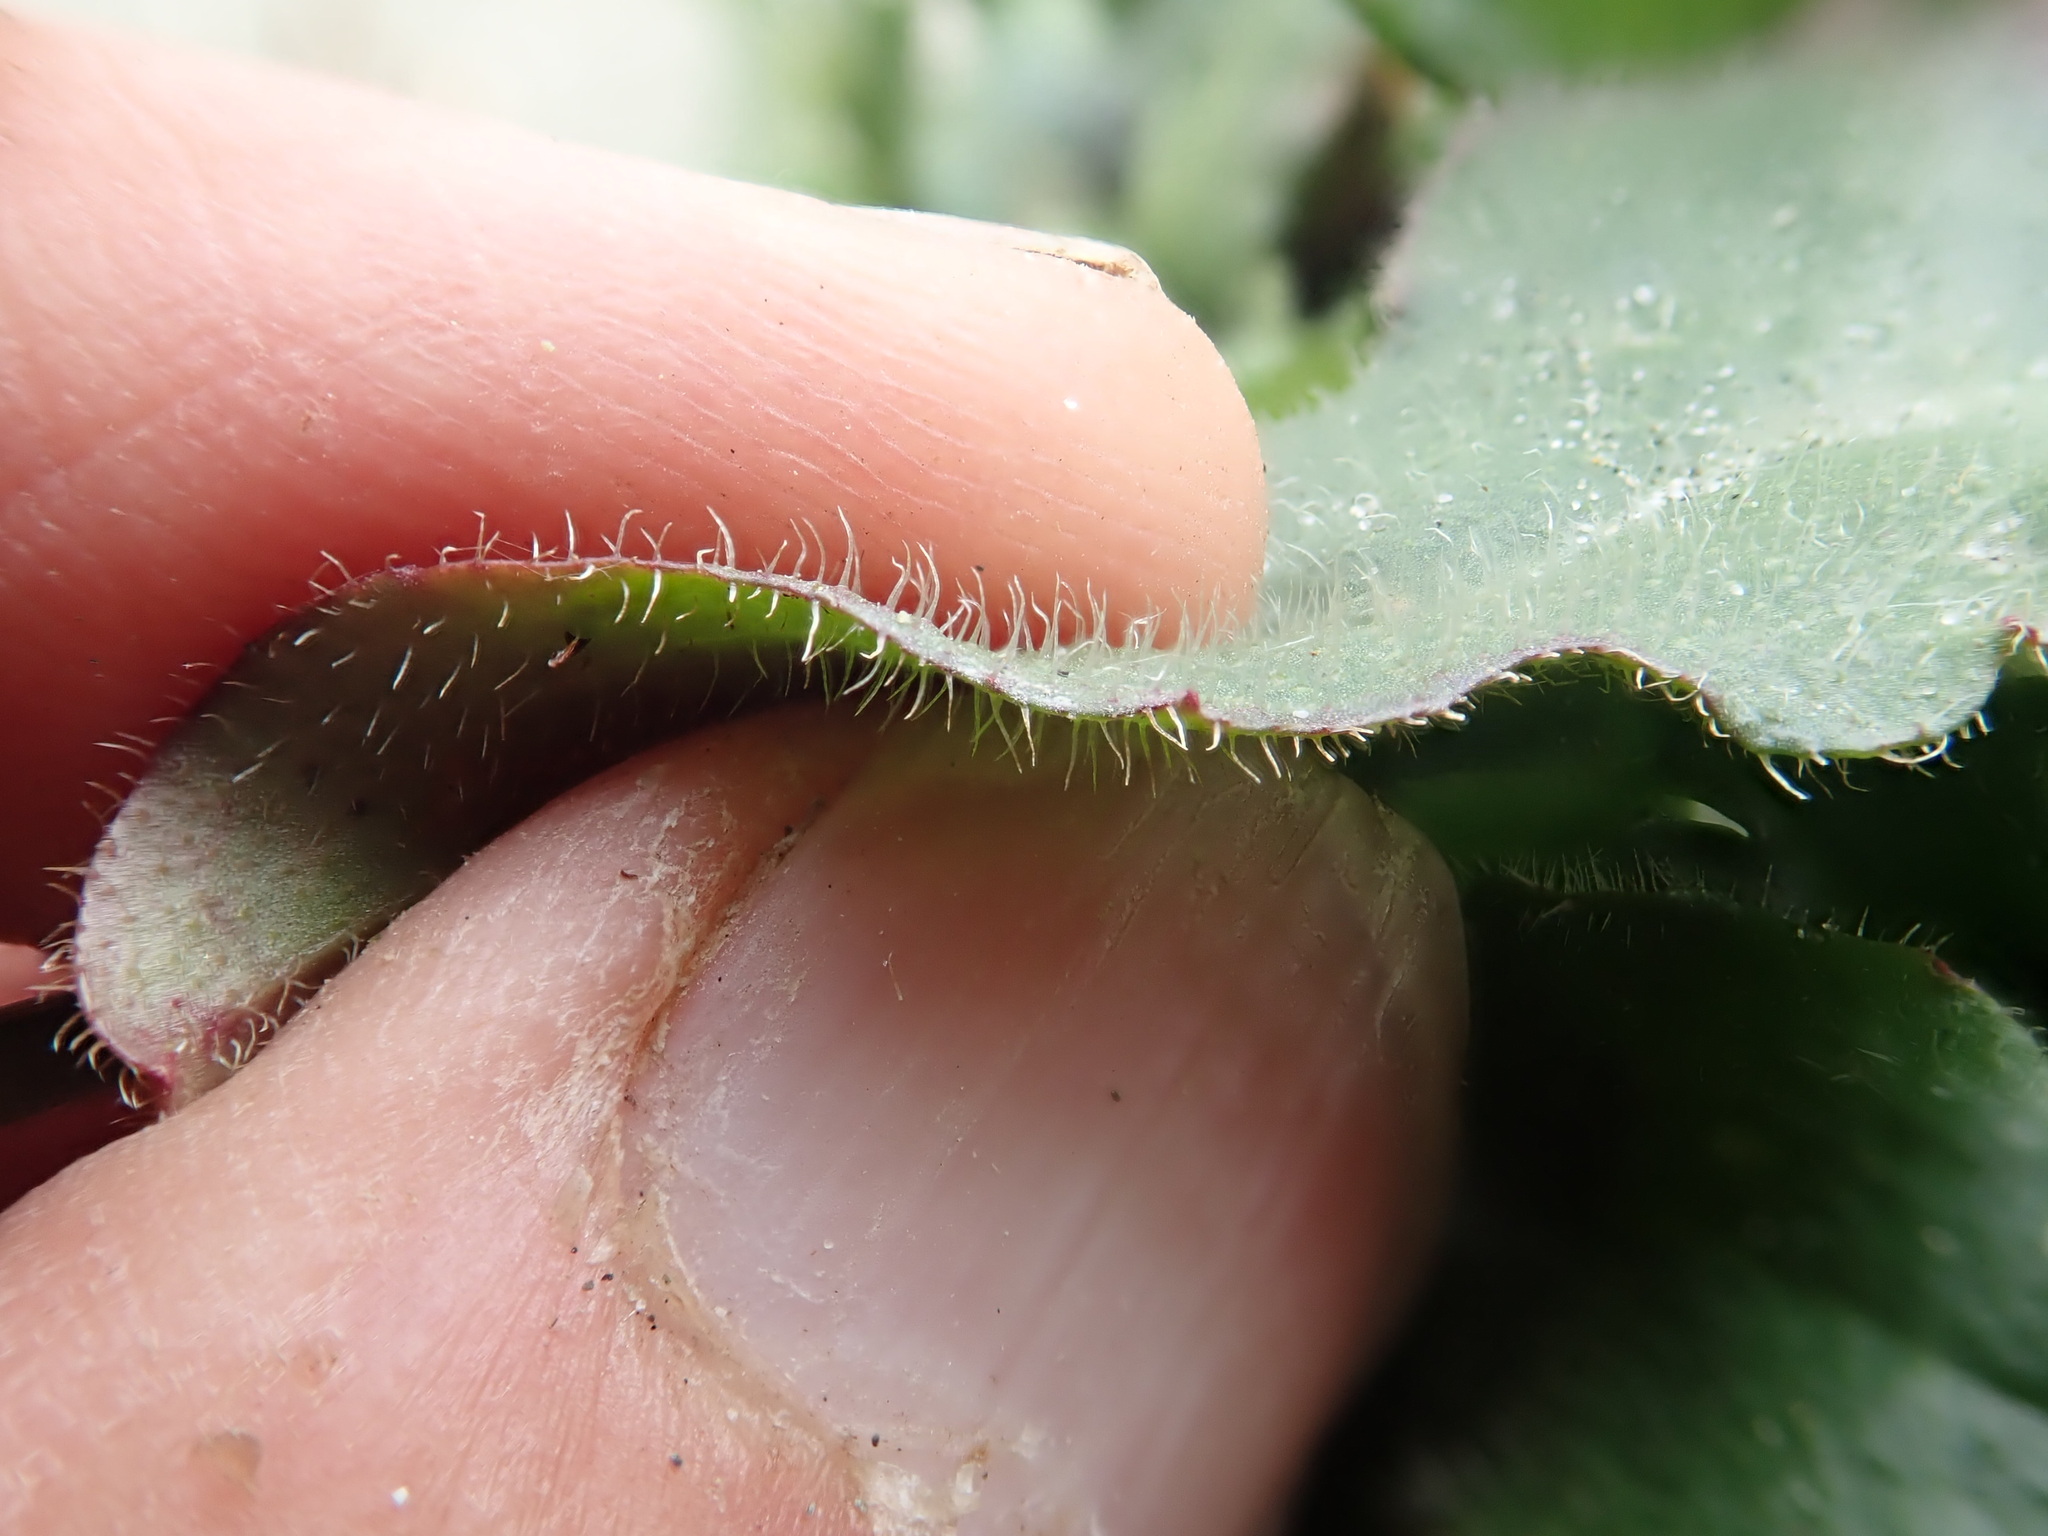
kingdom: Plantae
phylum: Tracheophyta
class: Magnoliopsida
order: Asterales
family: Asteraceae
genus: Hypochaeris
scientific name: Hypochaeris radicata
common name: Flatweed
